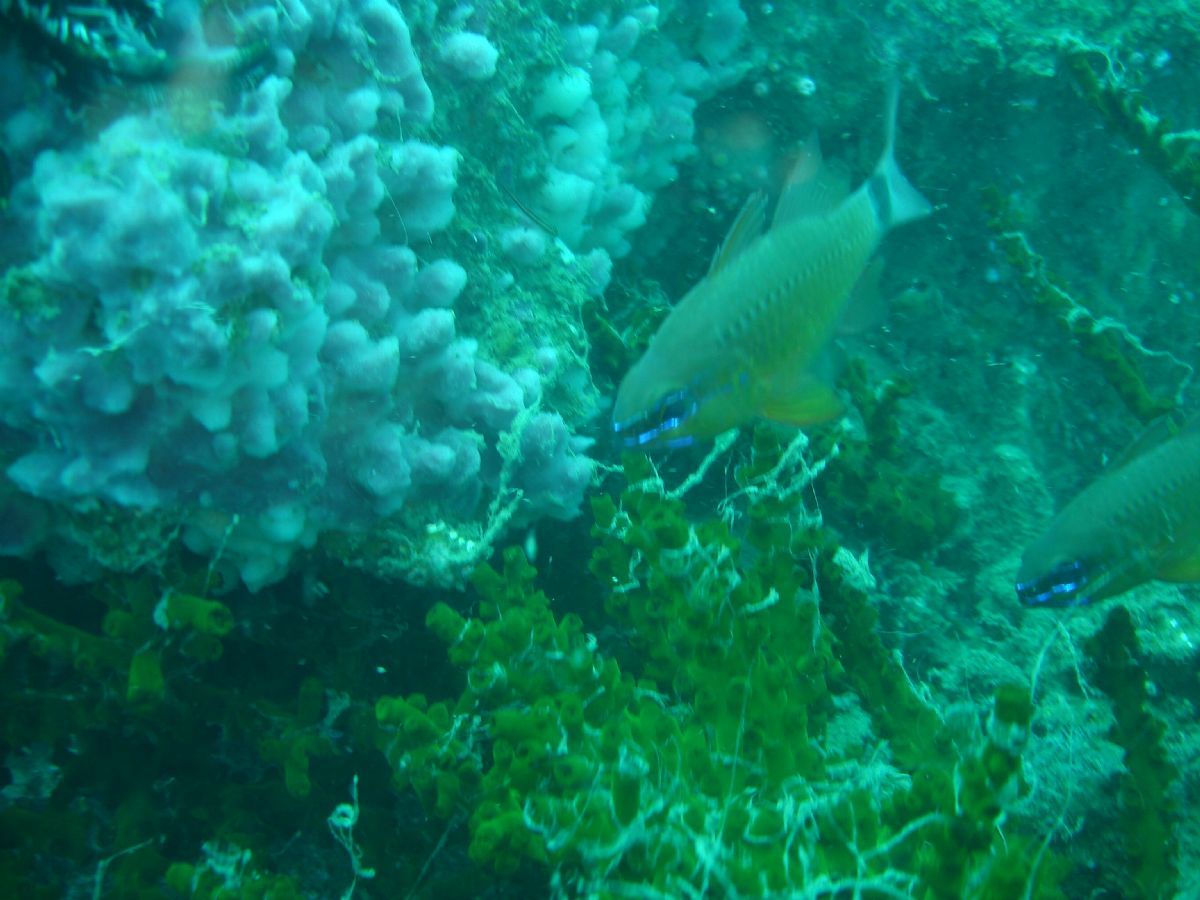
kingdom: Animalia
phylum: Chordata
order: Perciformes
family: Apogonidae
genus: Ostorhinchus
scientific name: Ostorhinchus fleurieu
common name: Bullseye cardinalfish
